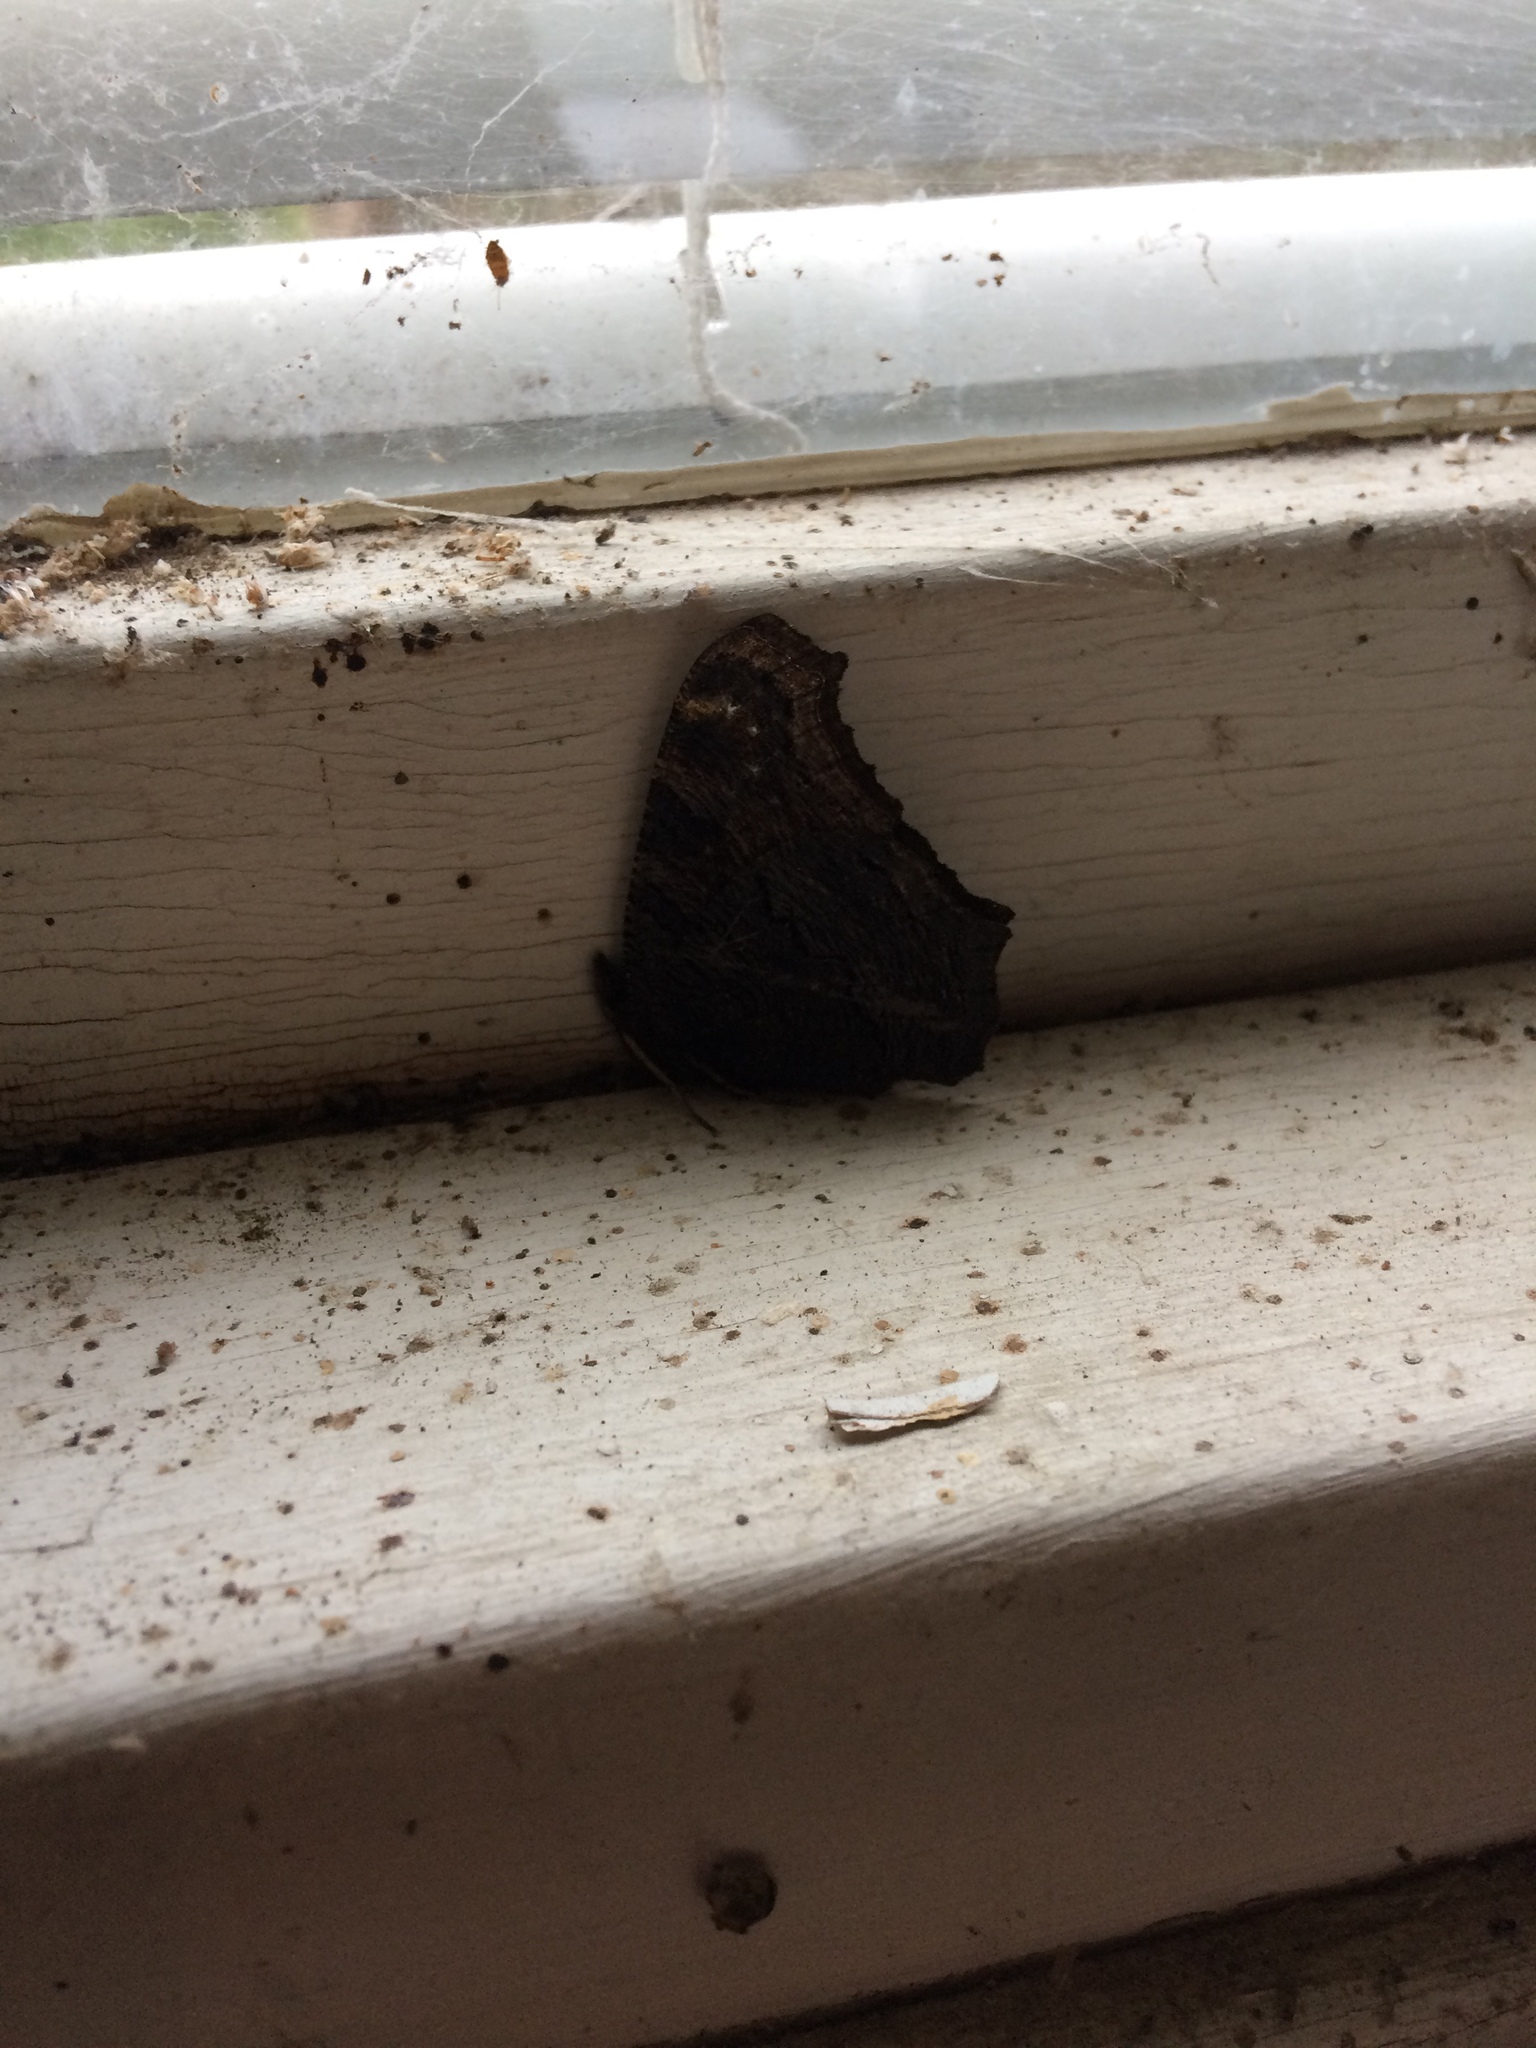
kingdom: Animalia
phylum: Arthropoda
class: Insecta
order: Lepidoptera
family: Nymphalidae
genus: Aglais
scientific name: Aglais io
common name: Peacock
